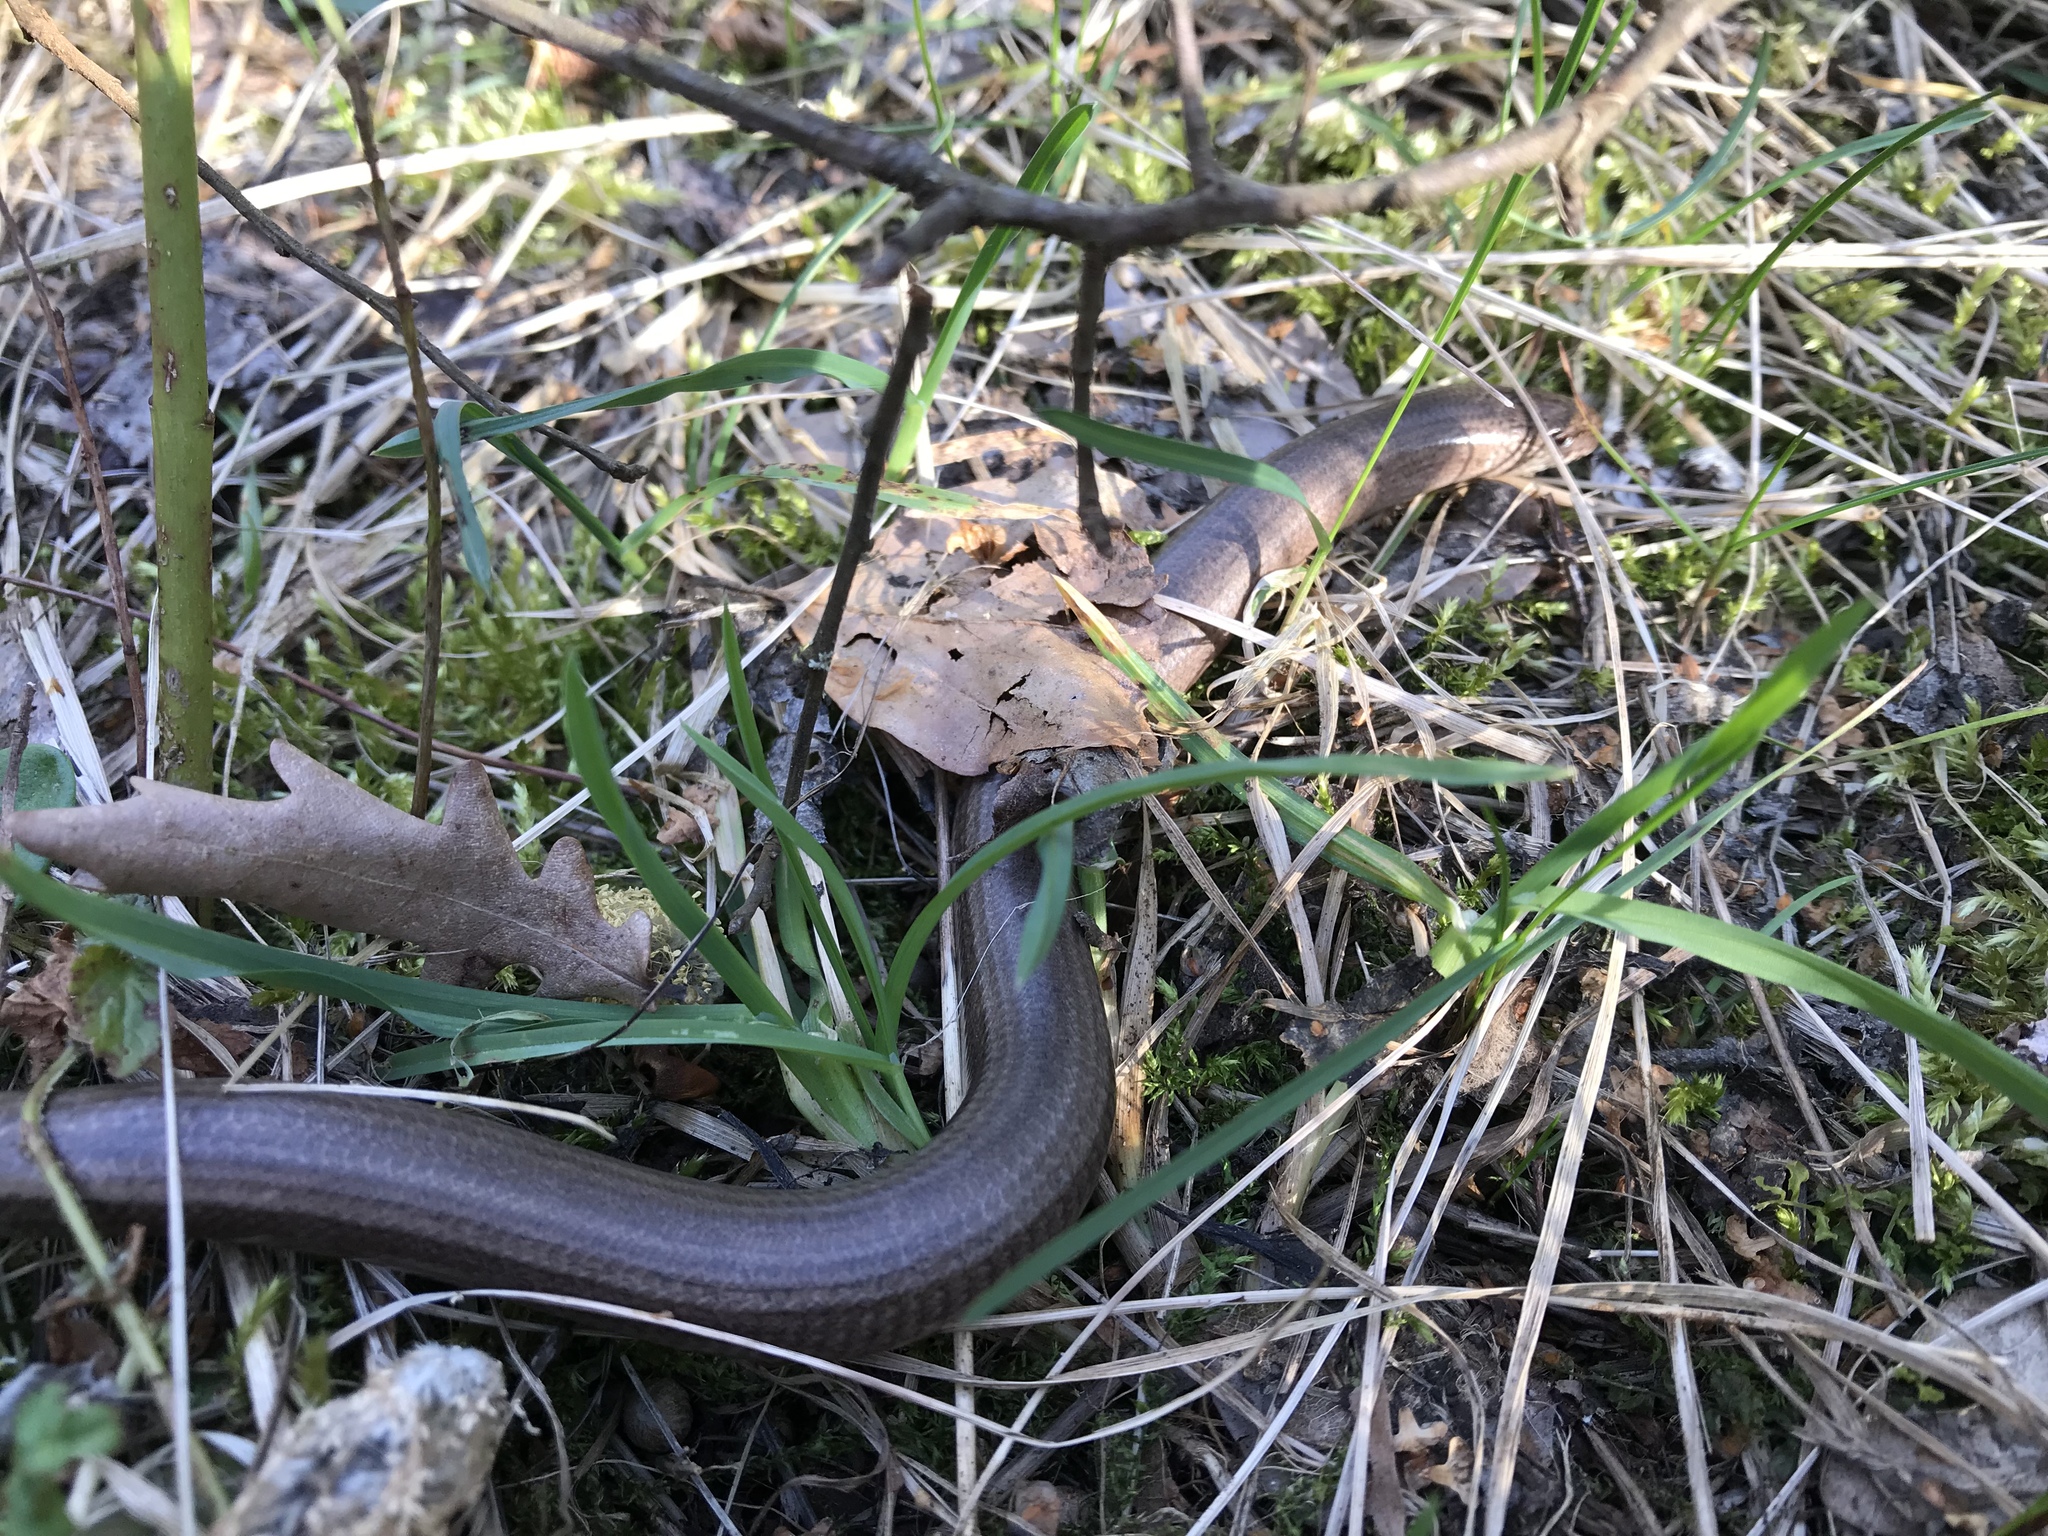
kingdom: Animalia
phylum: Chordata
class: Squamata
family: Anguidae
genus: Anguis
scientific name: Anguis fragilis
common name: Slow worm
